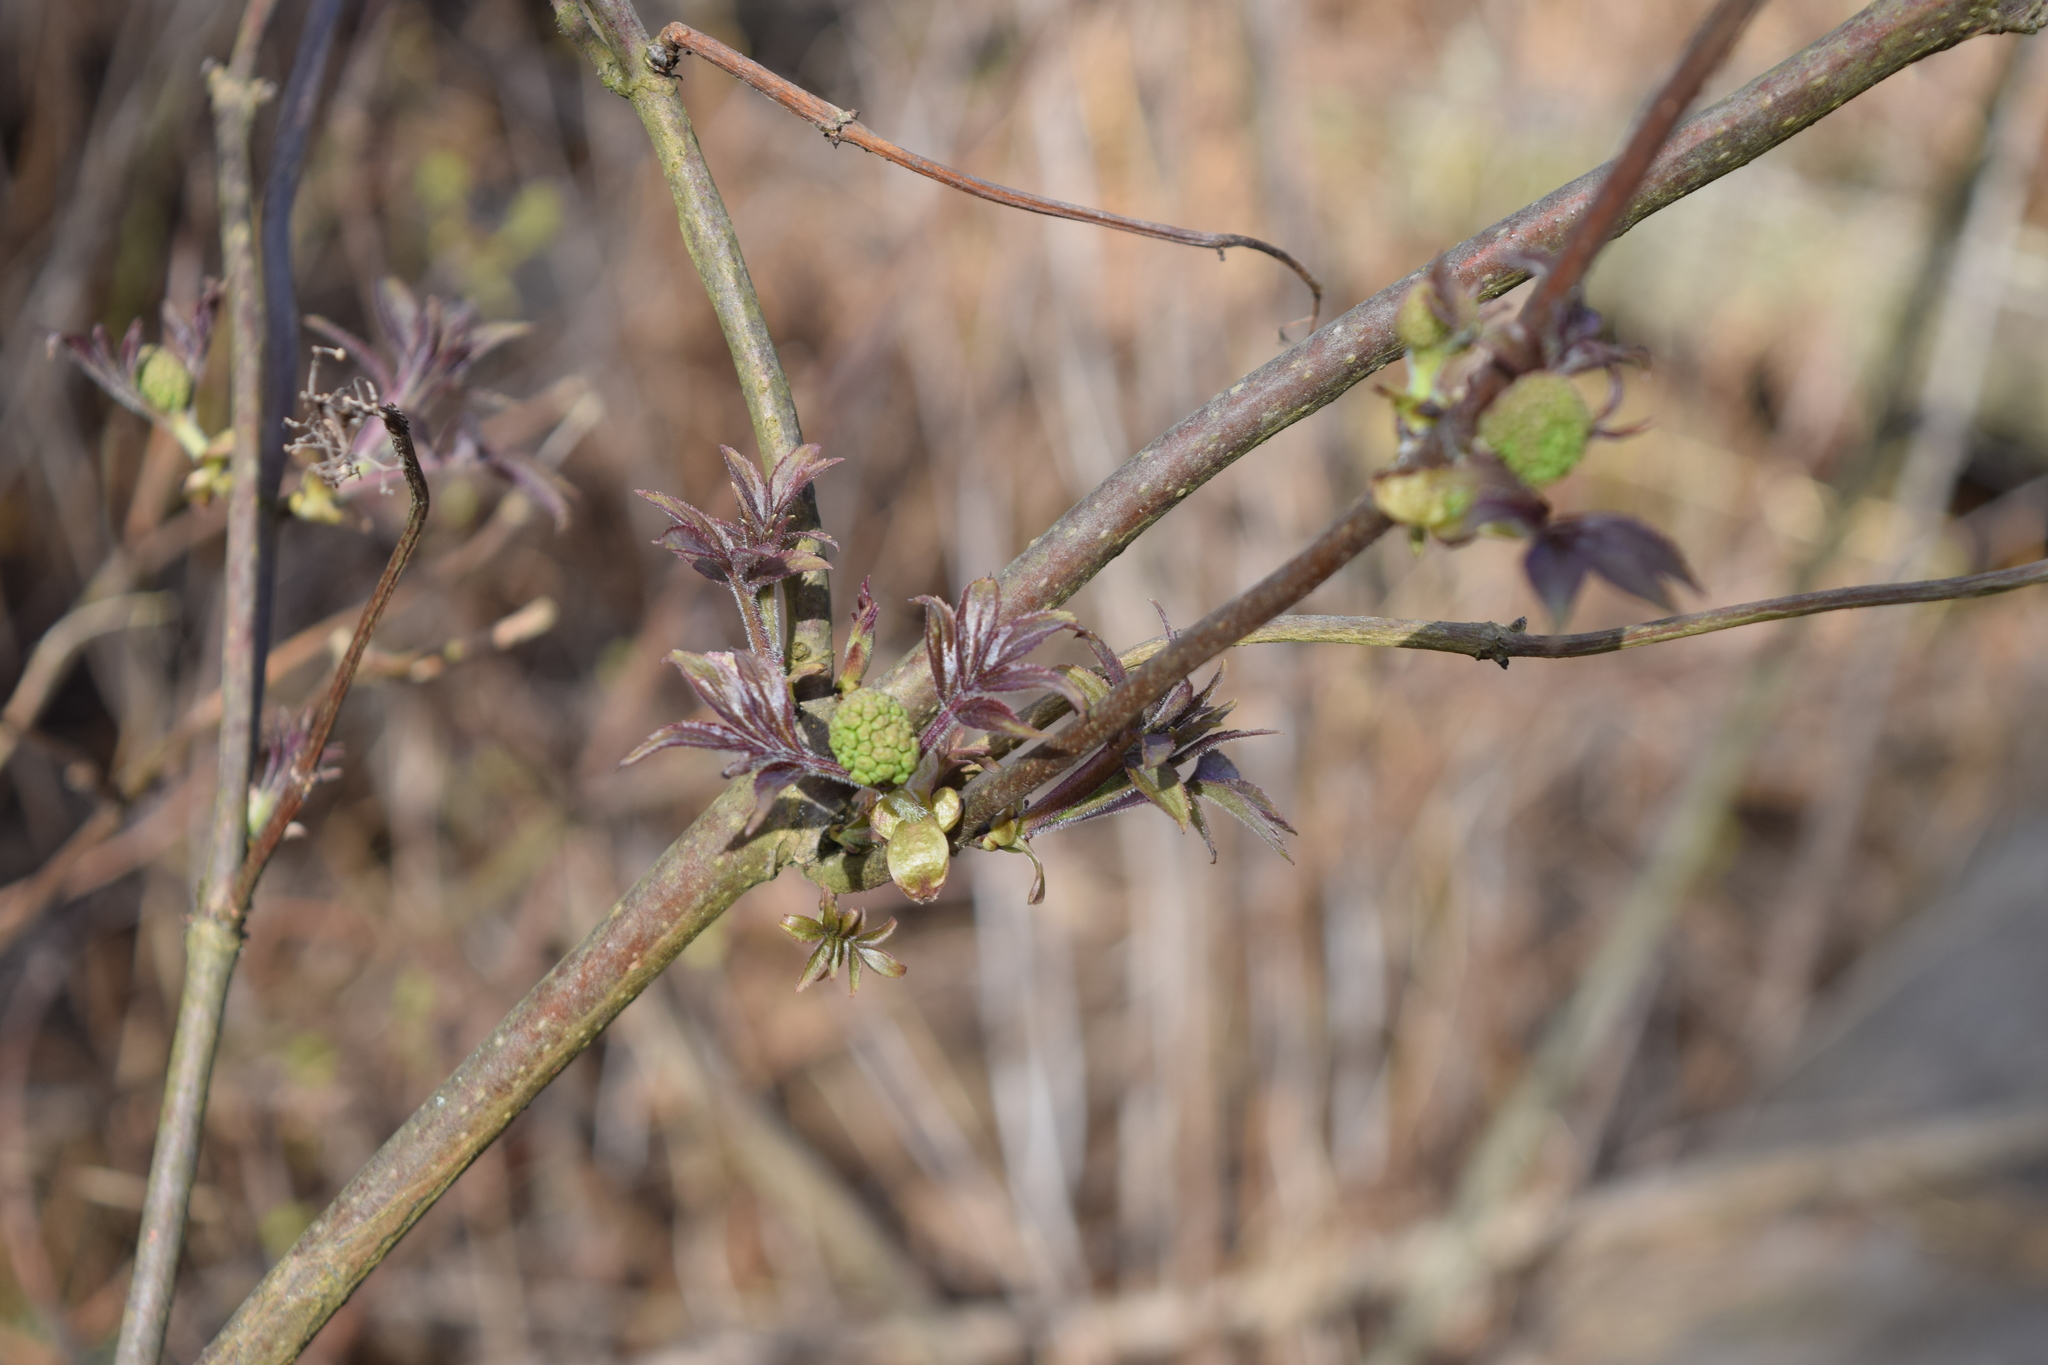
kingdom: Plantae
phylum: Tracheophyta
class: Magnoliopsida
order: Dipsacales
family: Viburnaceae
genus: Sambucus
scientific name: Sambucus racemosa
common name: Red-berried elder
